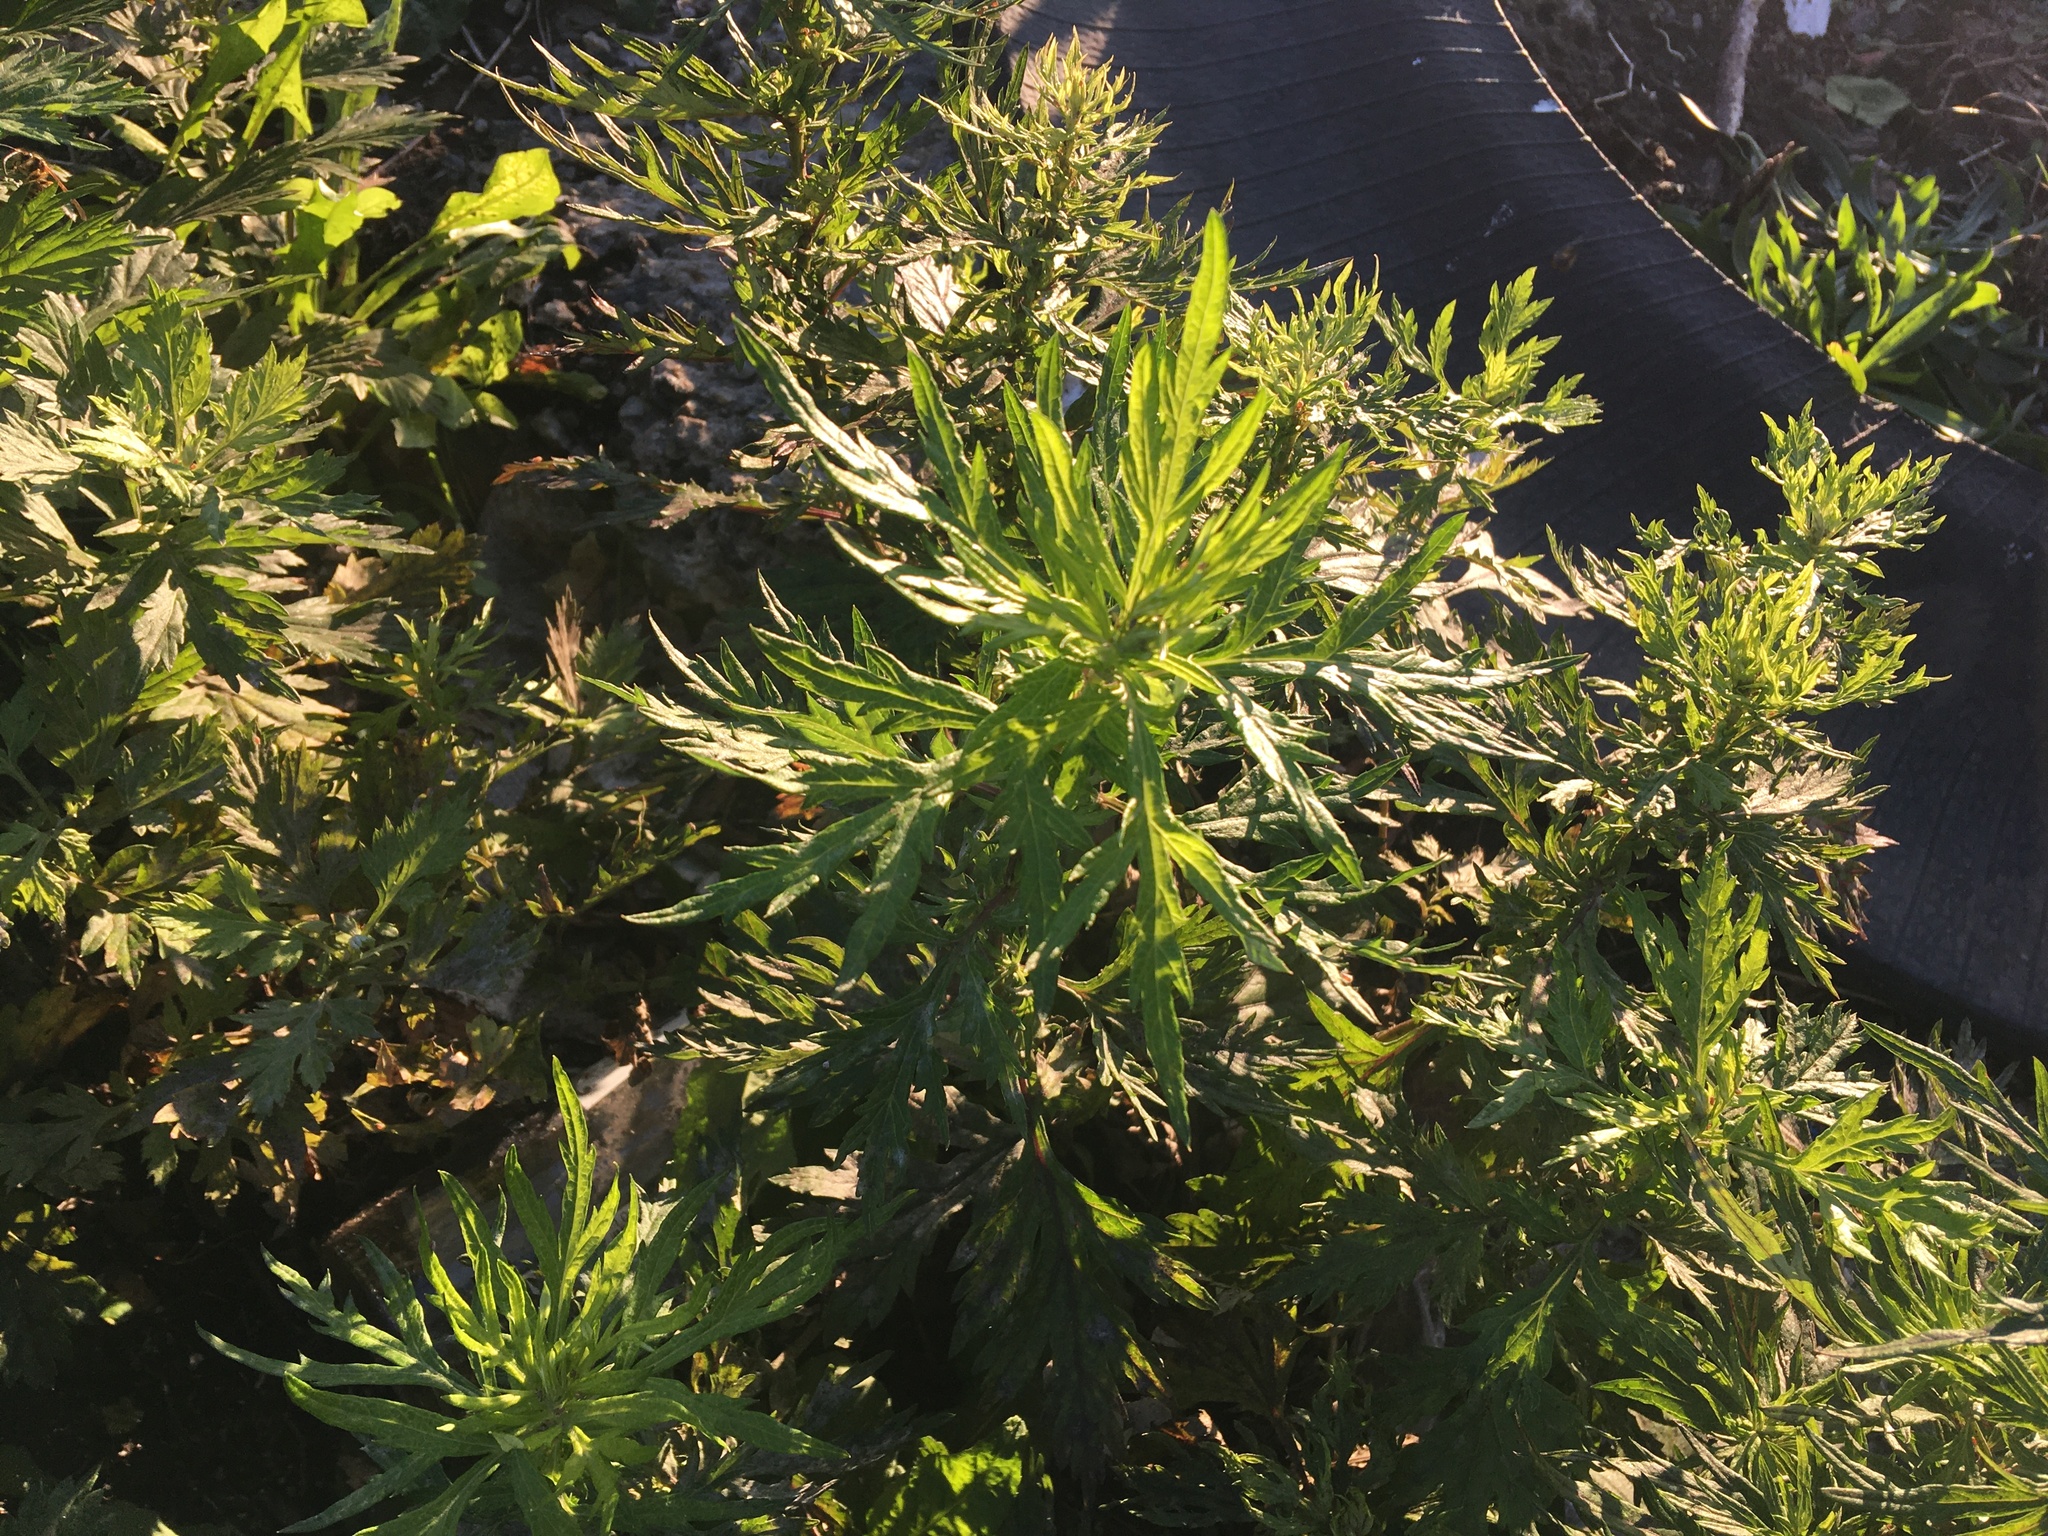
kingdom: Plantae
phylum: Tracheophyta
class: Magnoliopsida
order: Asterales
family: Asteraceae
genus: Artemisia
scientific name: Artemisia vulgaris
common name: Mugwort
